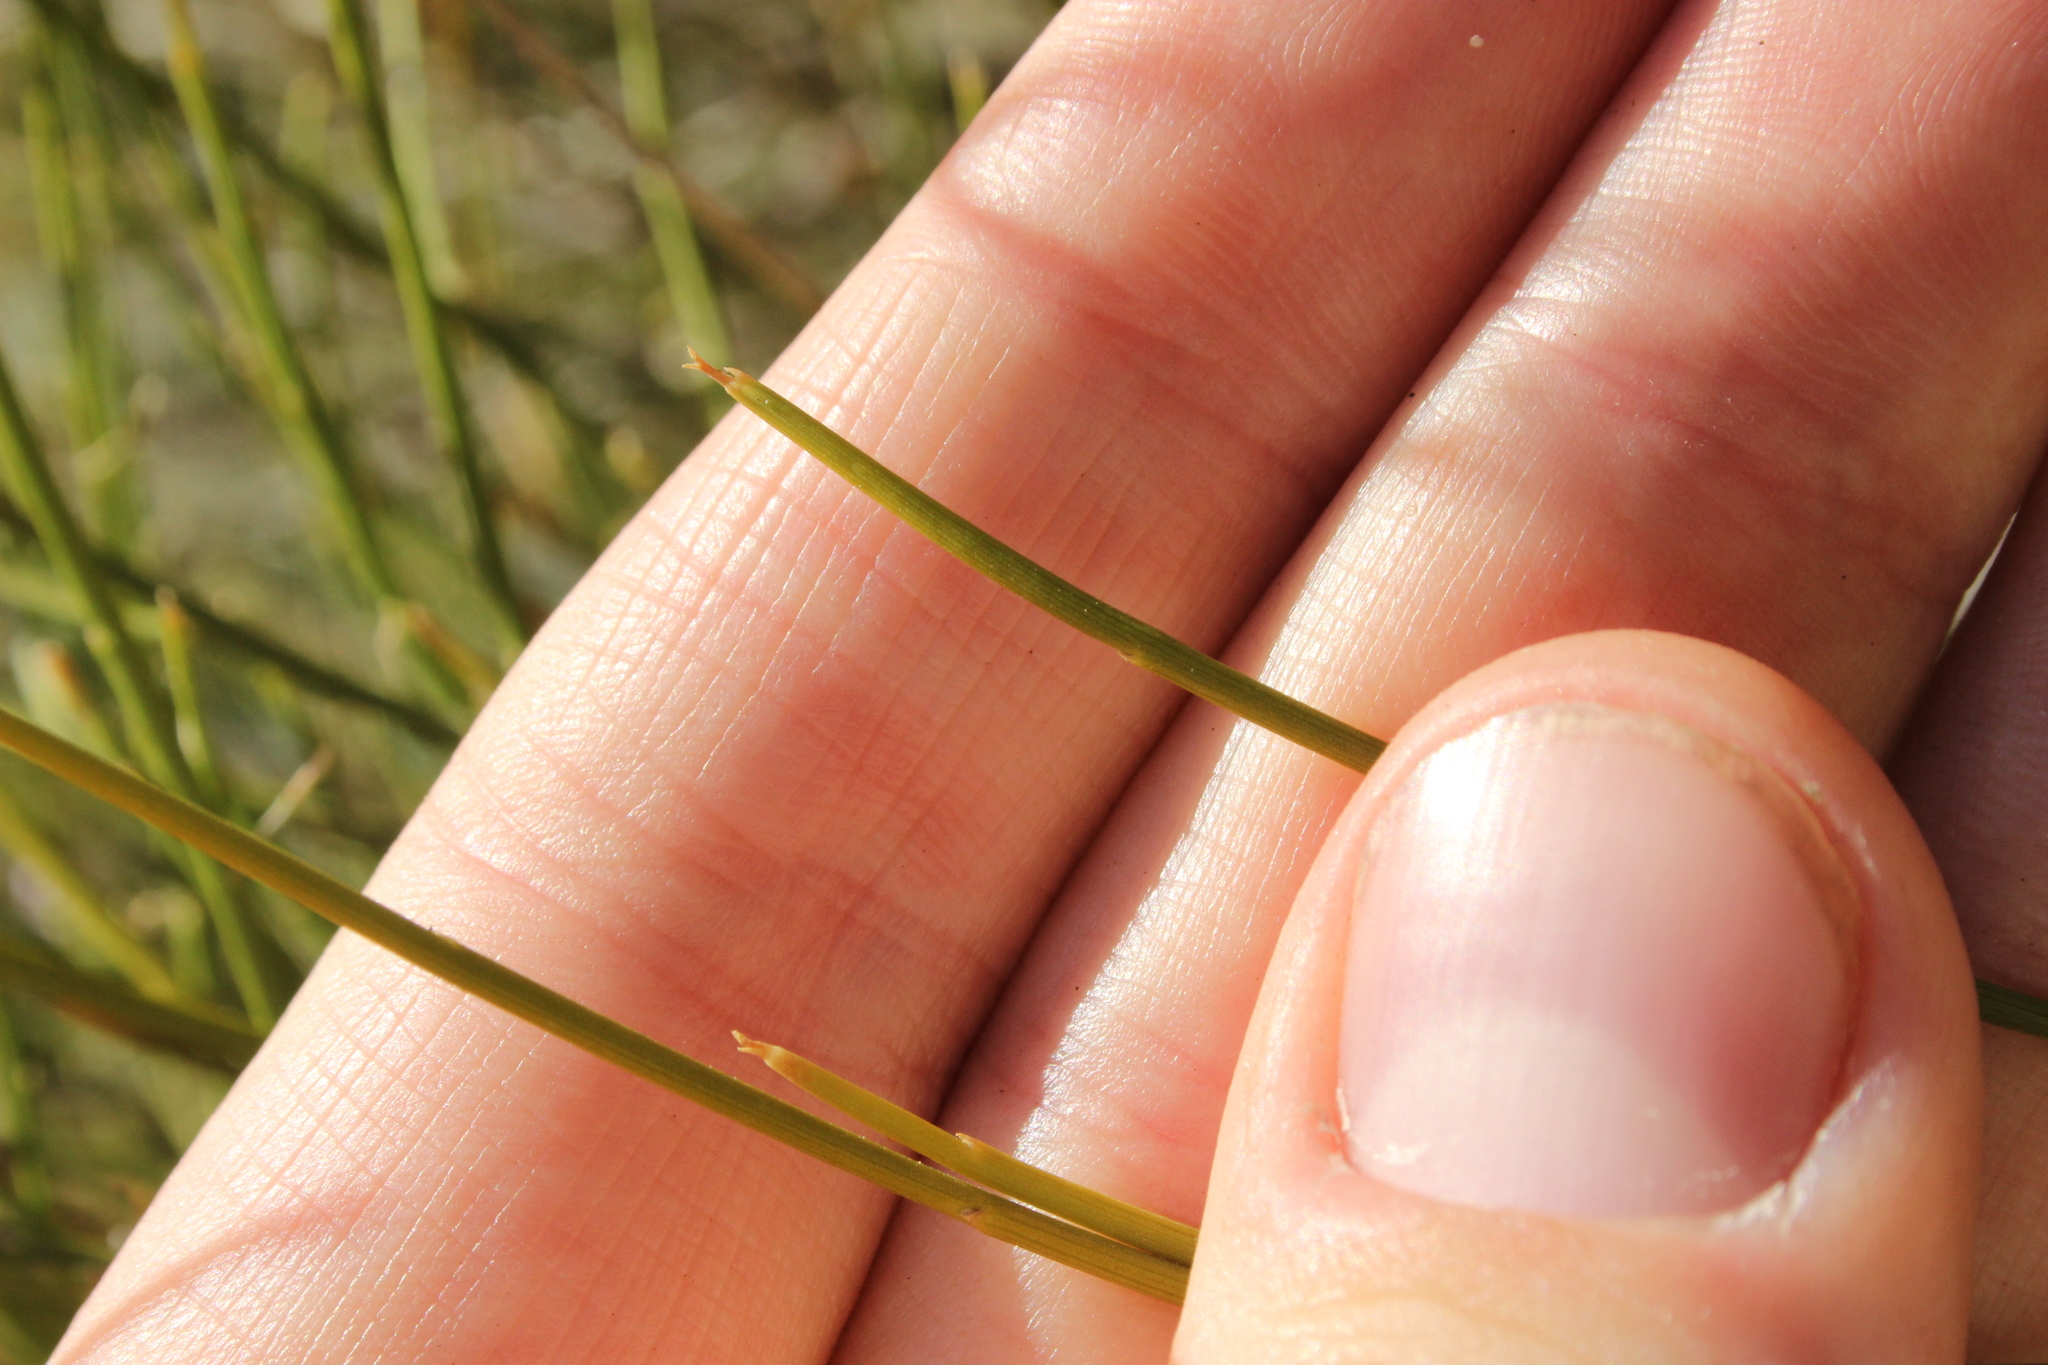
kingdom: Plantae
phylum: Tracheophyta
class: Magnoliopsida
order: Fabales
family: Fabaceae
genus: Carmichaelia
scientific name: Carmichaelia compacta
